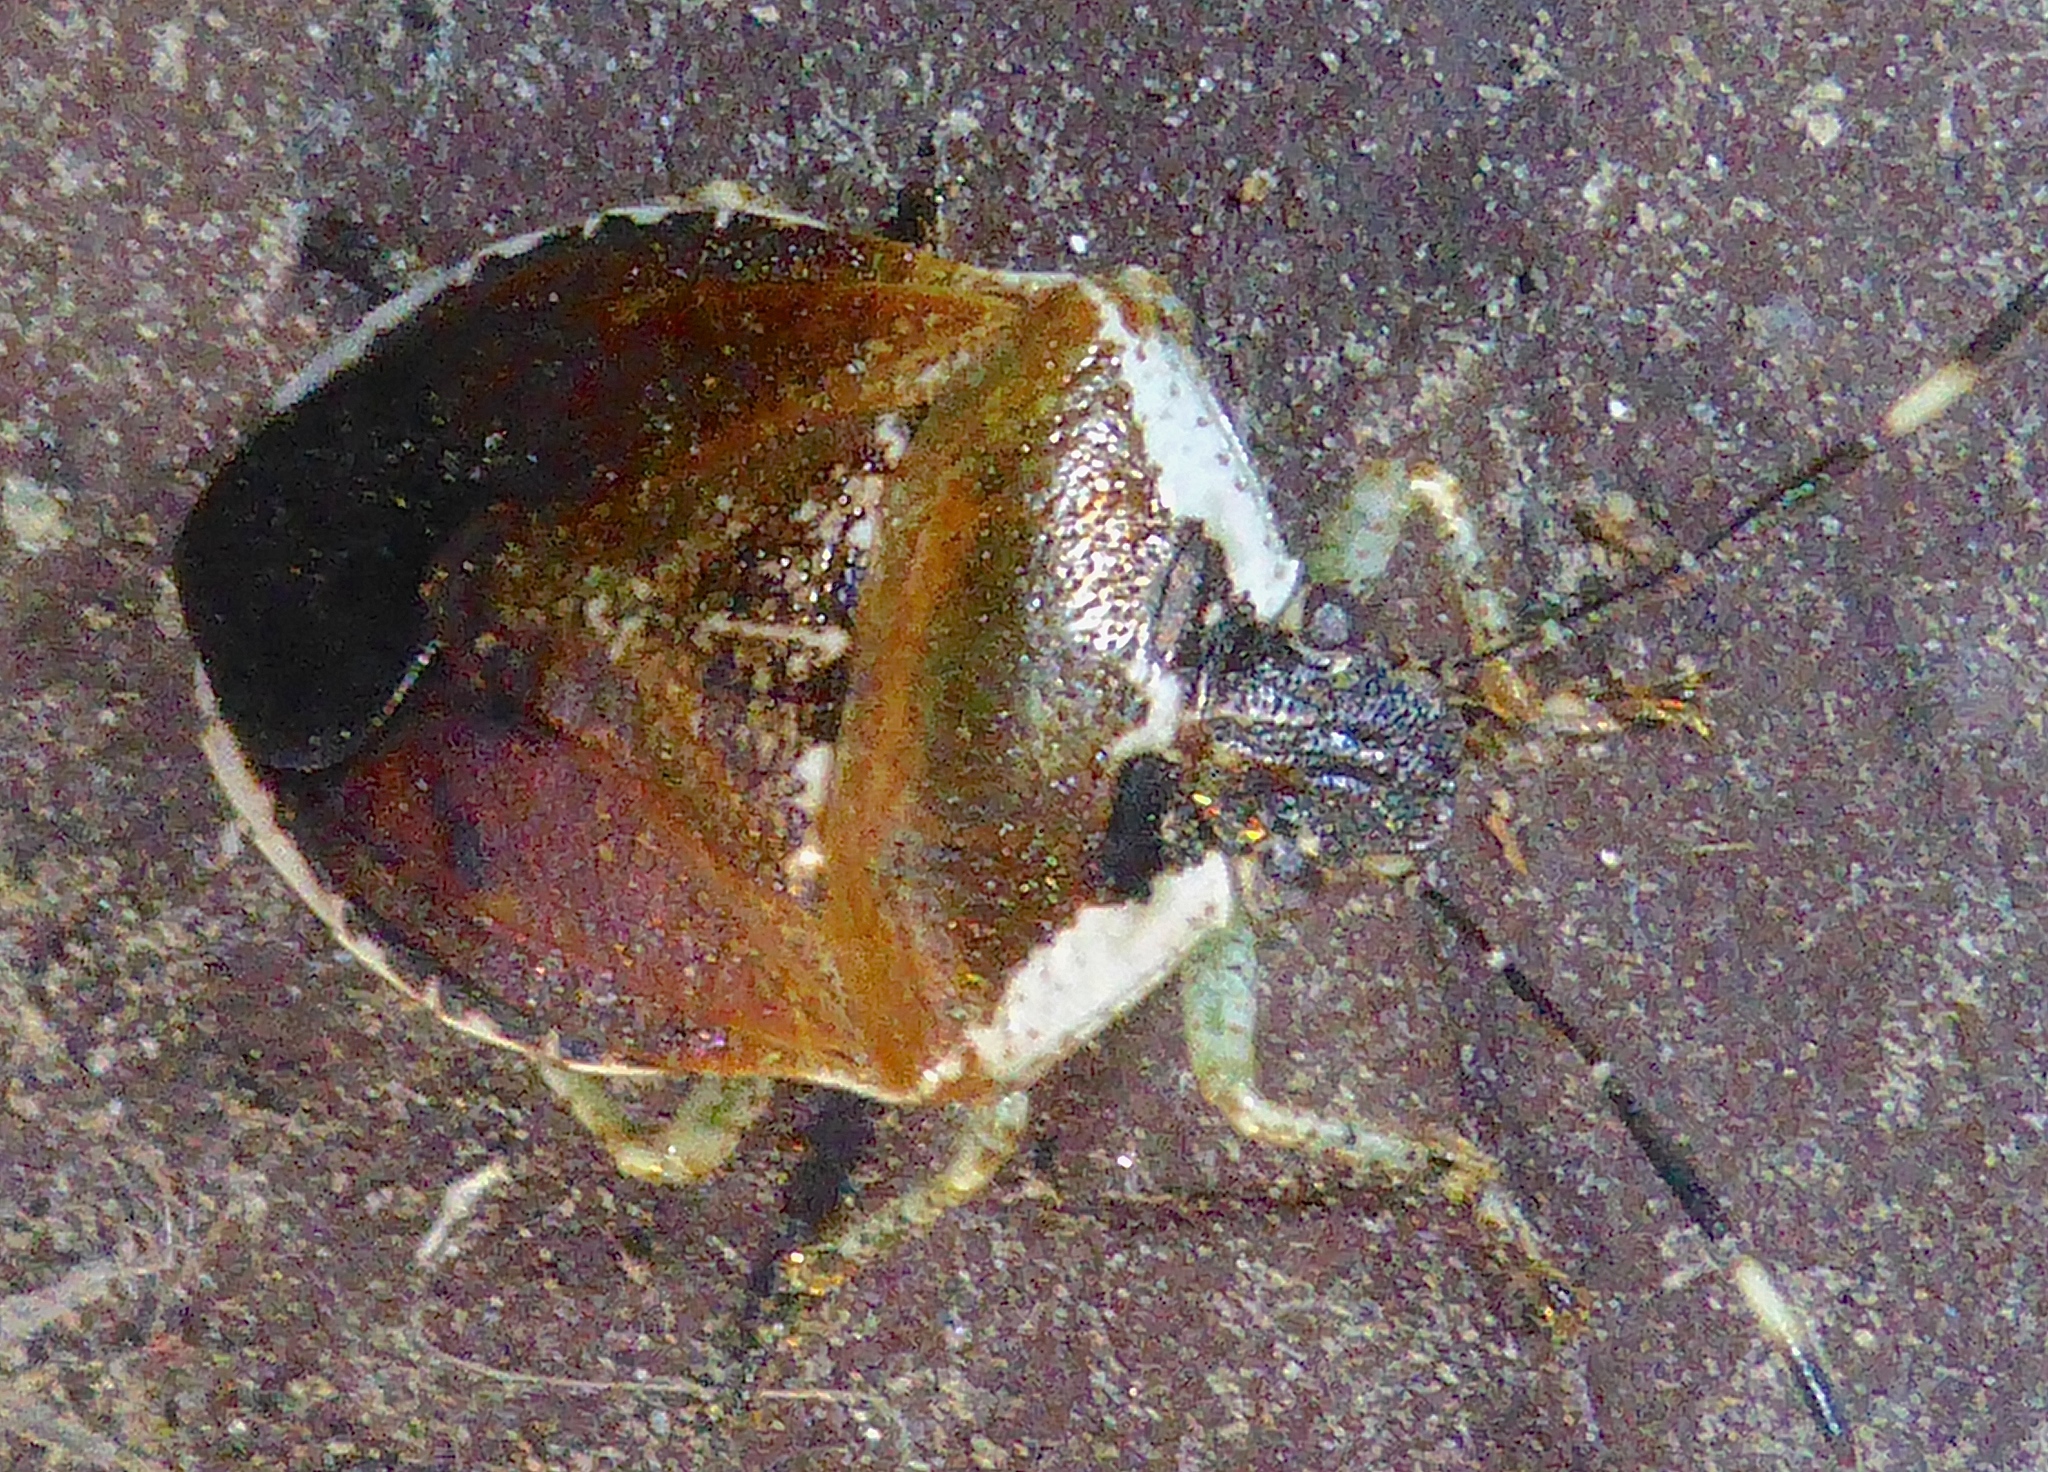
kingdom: Animalia
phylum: Arthropoda
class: Insecta
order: Hemiptera
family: Pentatomidae
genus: Monteithiella
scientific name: Monteithiella
